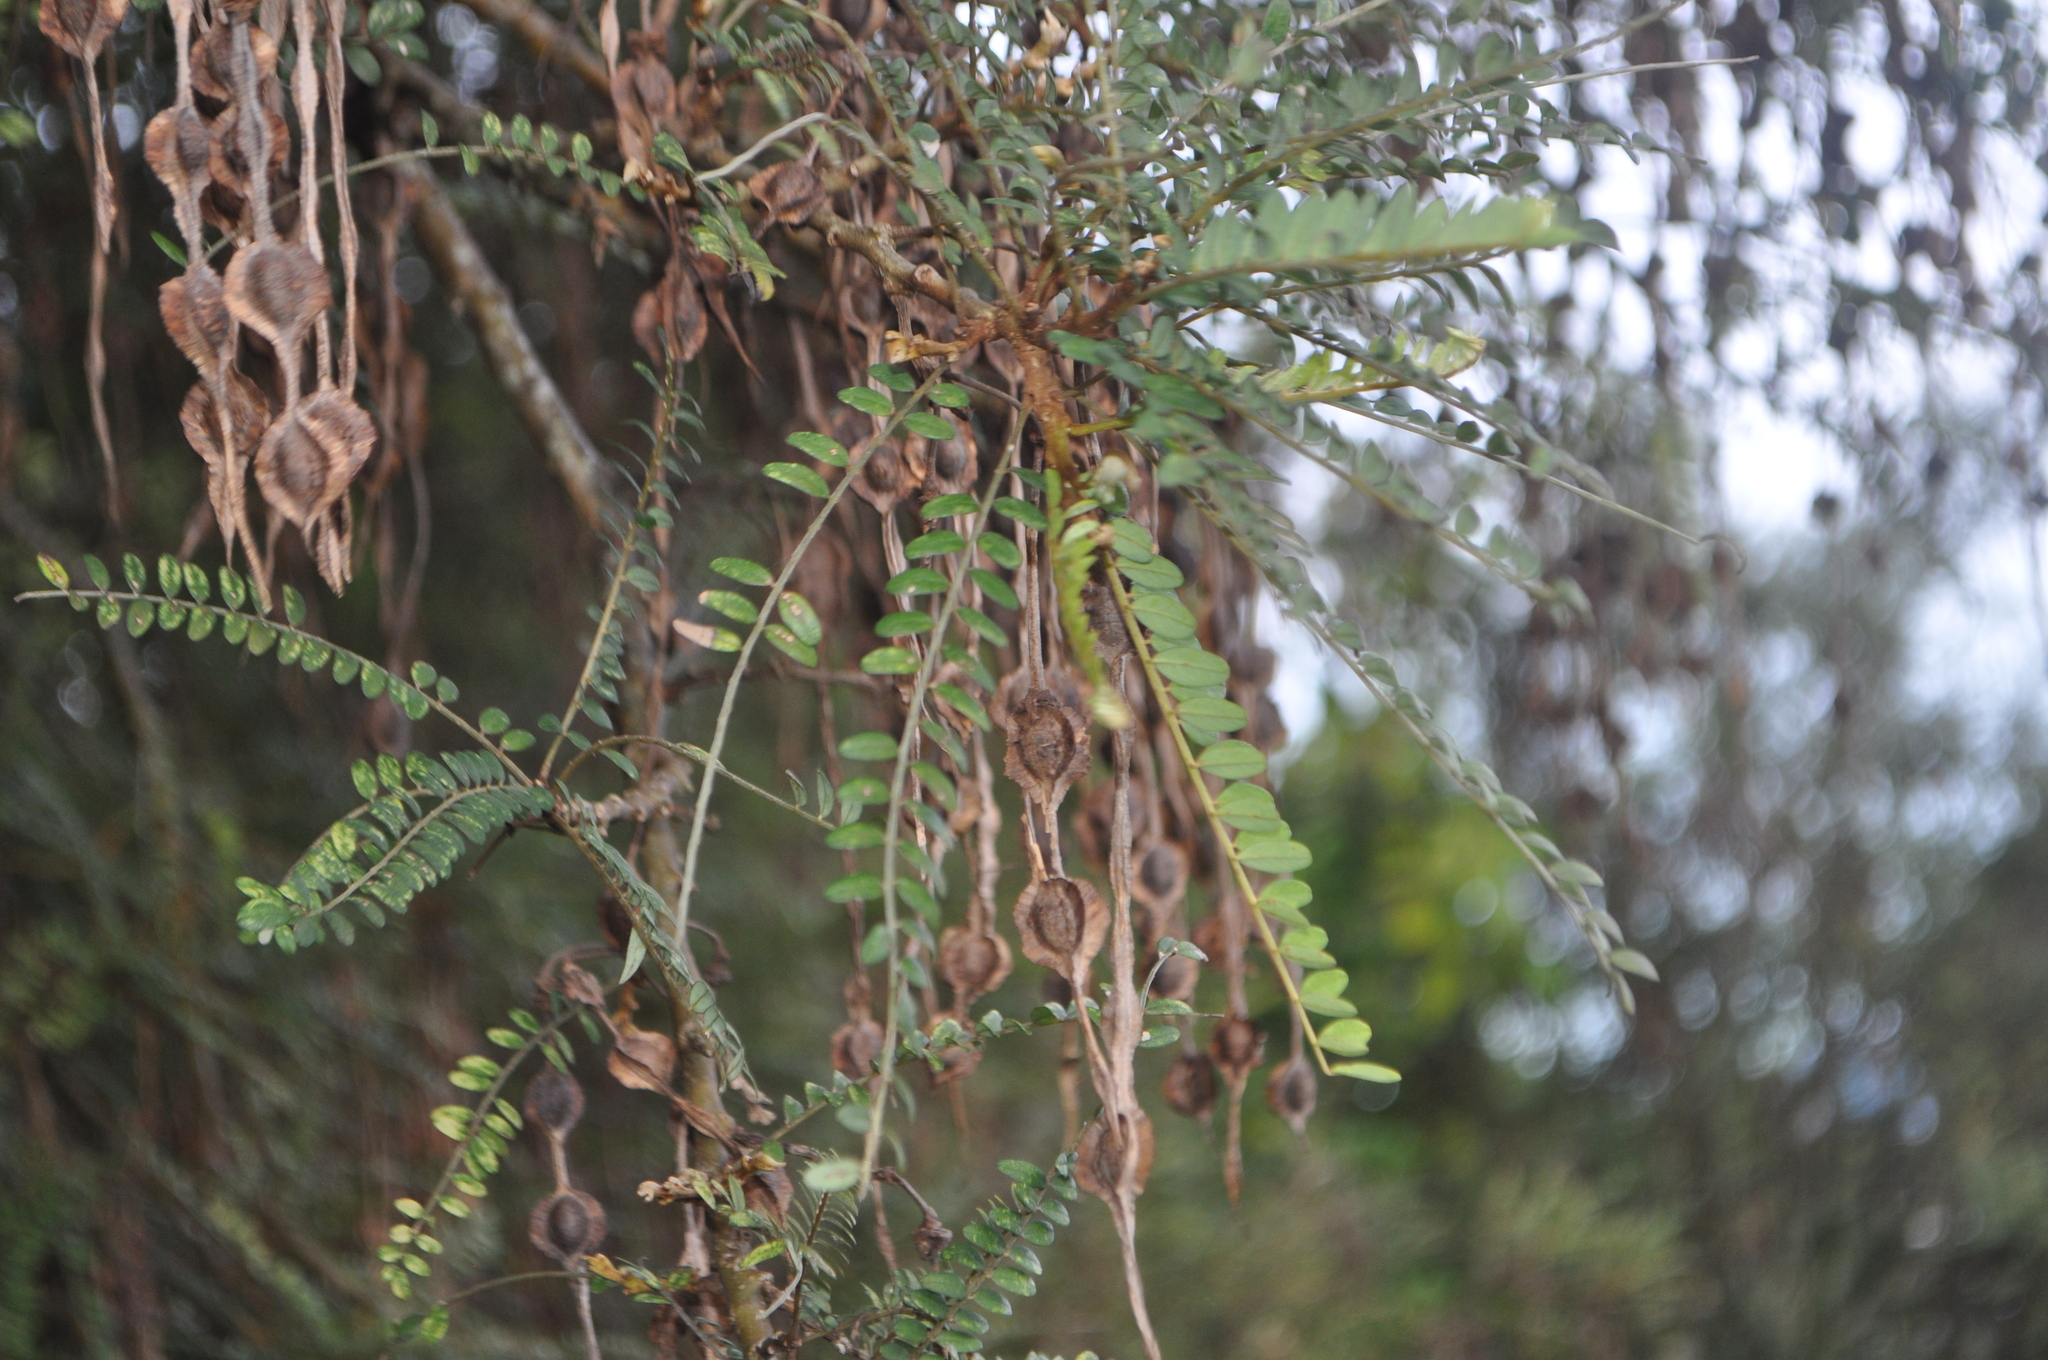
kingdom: Plantae
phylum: Tracheophyta
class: Magnoliopsida
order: Fabales
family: Fabaceae
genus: Sophora
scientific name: Sophora microphylla
